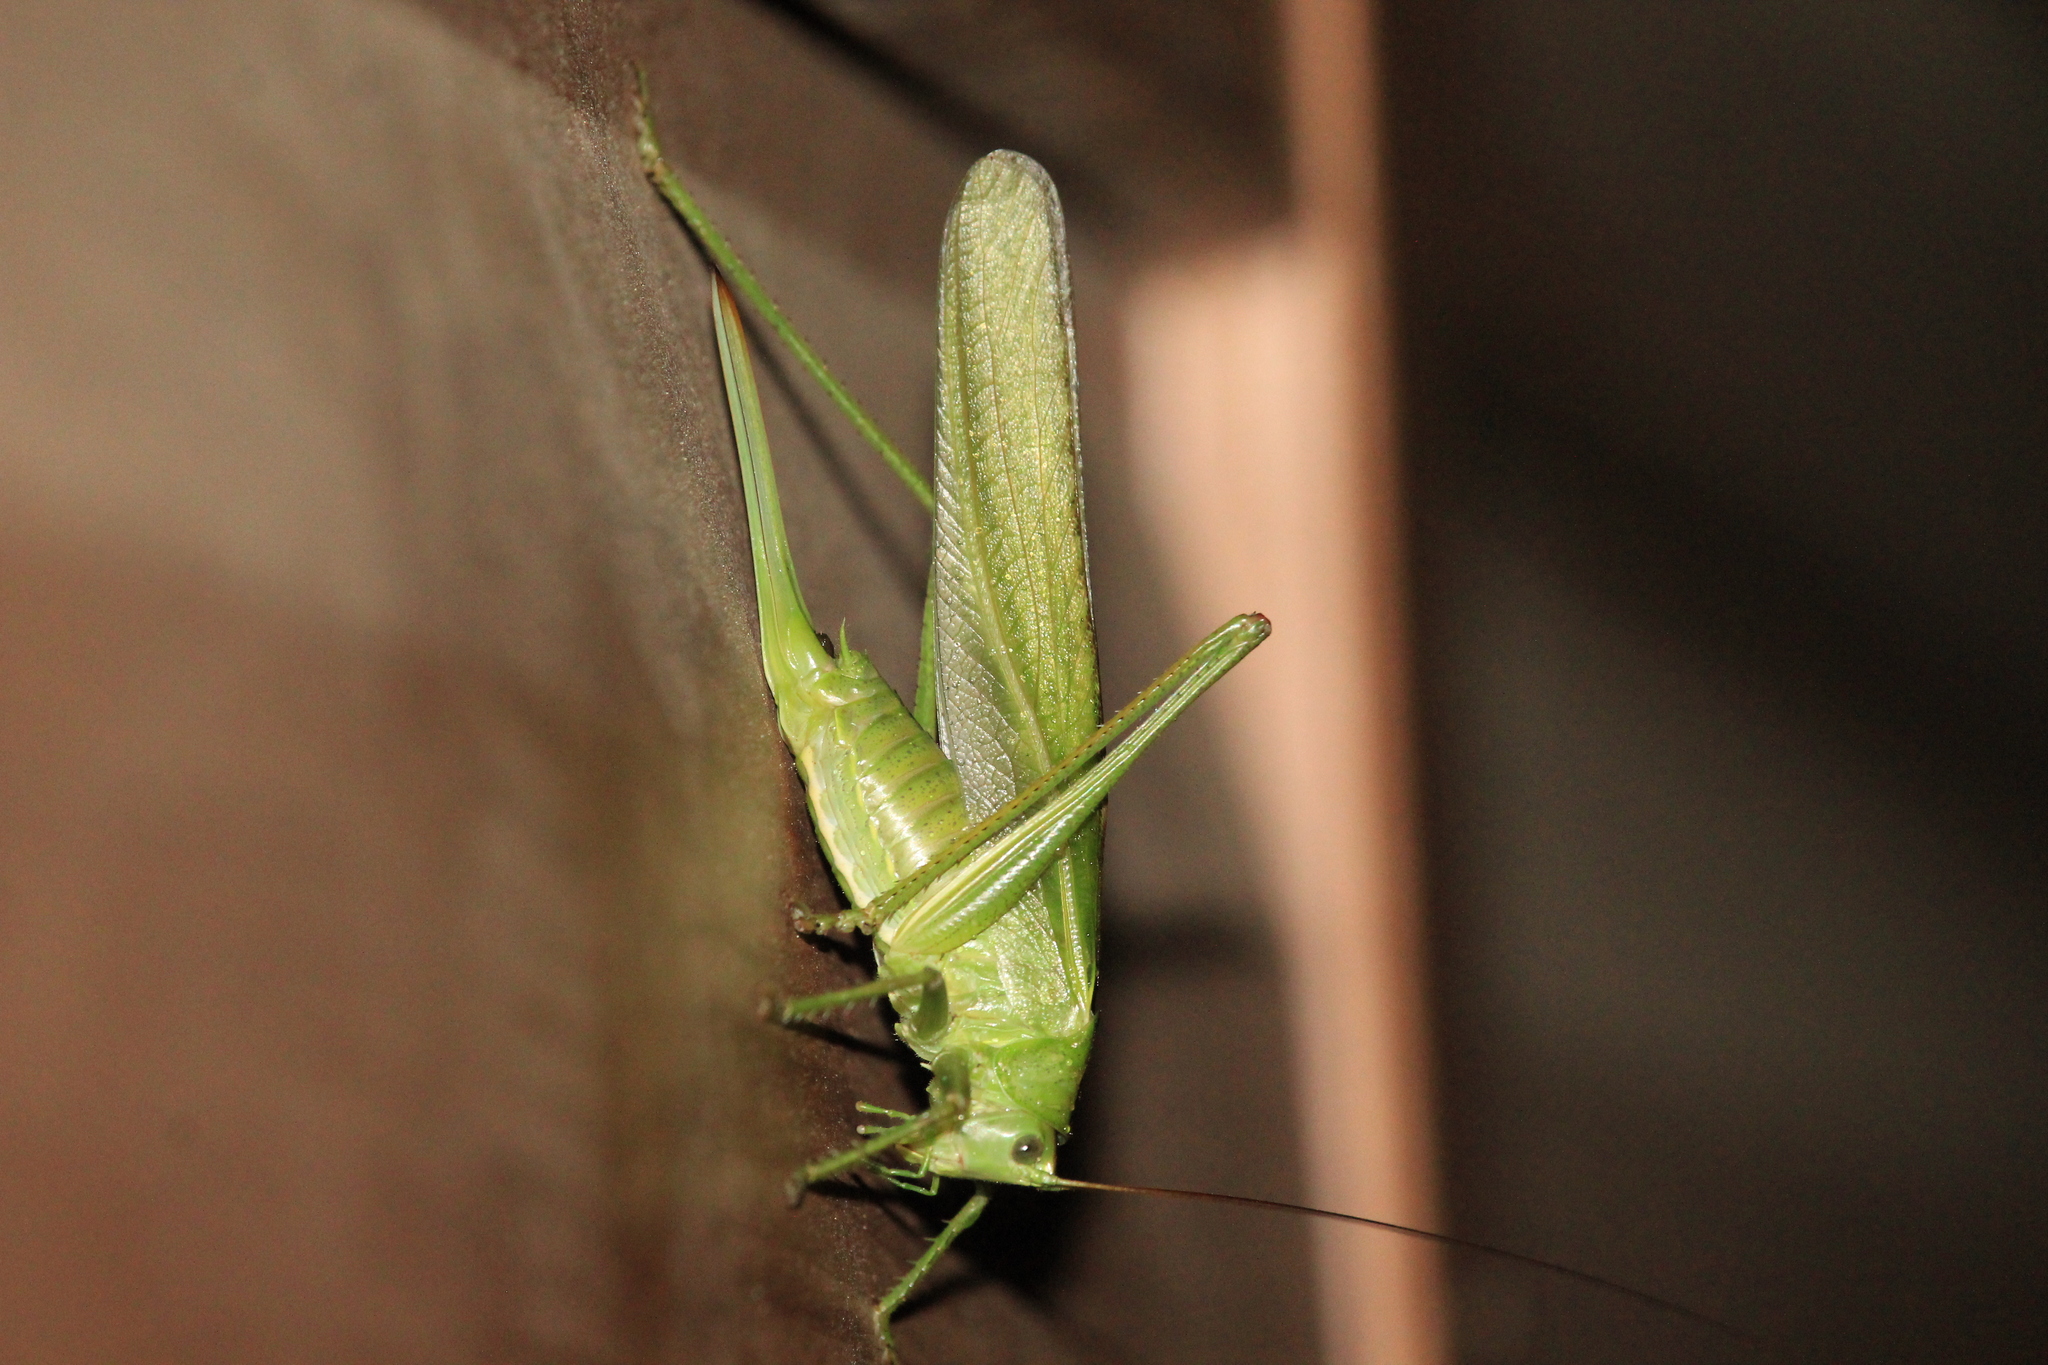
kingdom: Animalia
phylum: Arthropoda
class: Insecta
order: Orthoptera
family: Tettigoniidae
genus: Tettigonia
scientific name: Tettigonia viridissima
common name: Great green bush-cricket
